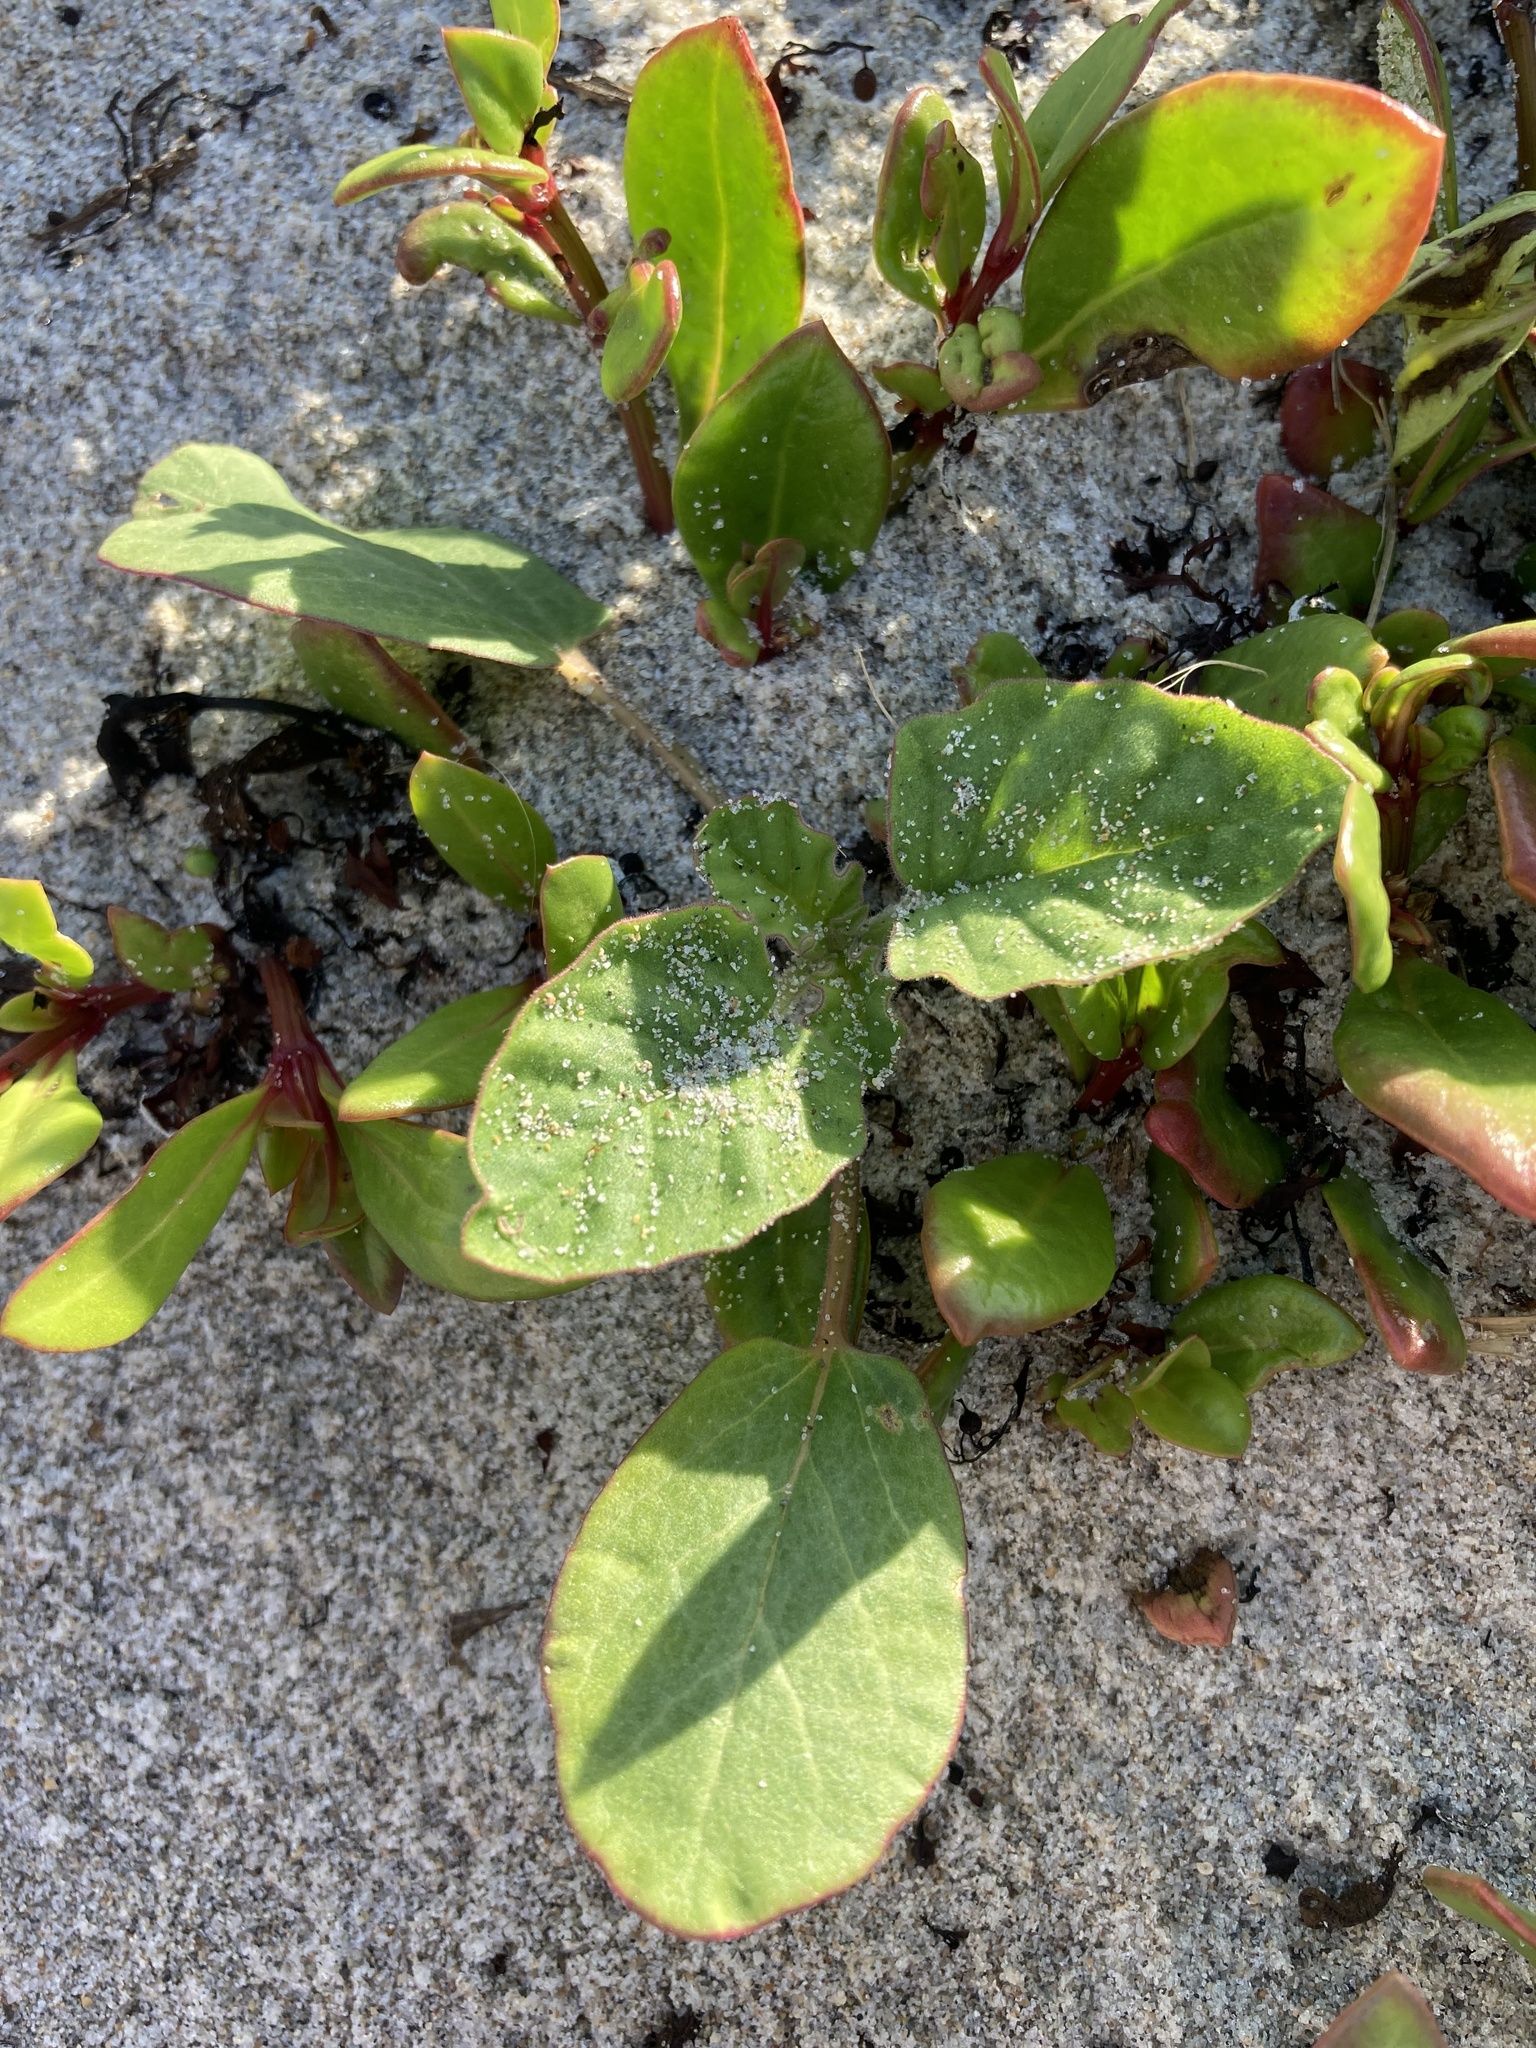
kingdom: Plantae
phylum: Tracheophyta
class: Magnoliopsida
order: Caryophyllales
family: Nyctaginaceae
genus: Okenia
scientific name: Okenia hypogaea
